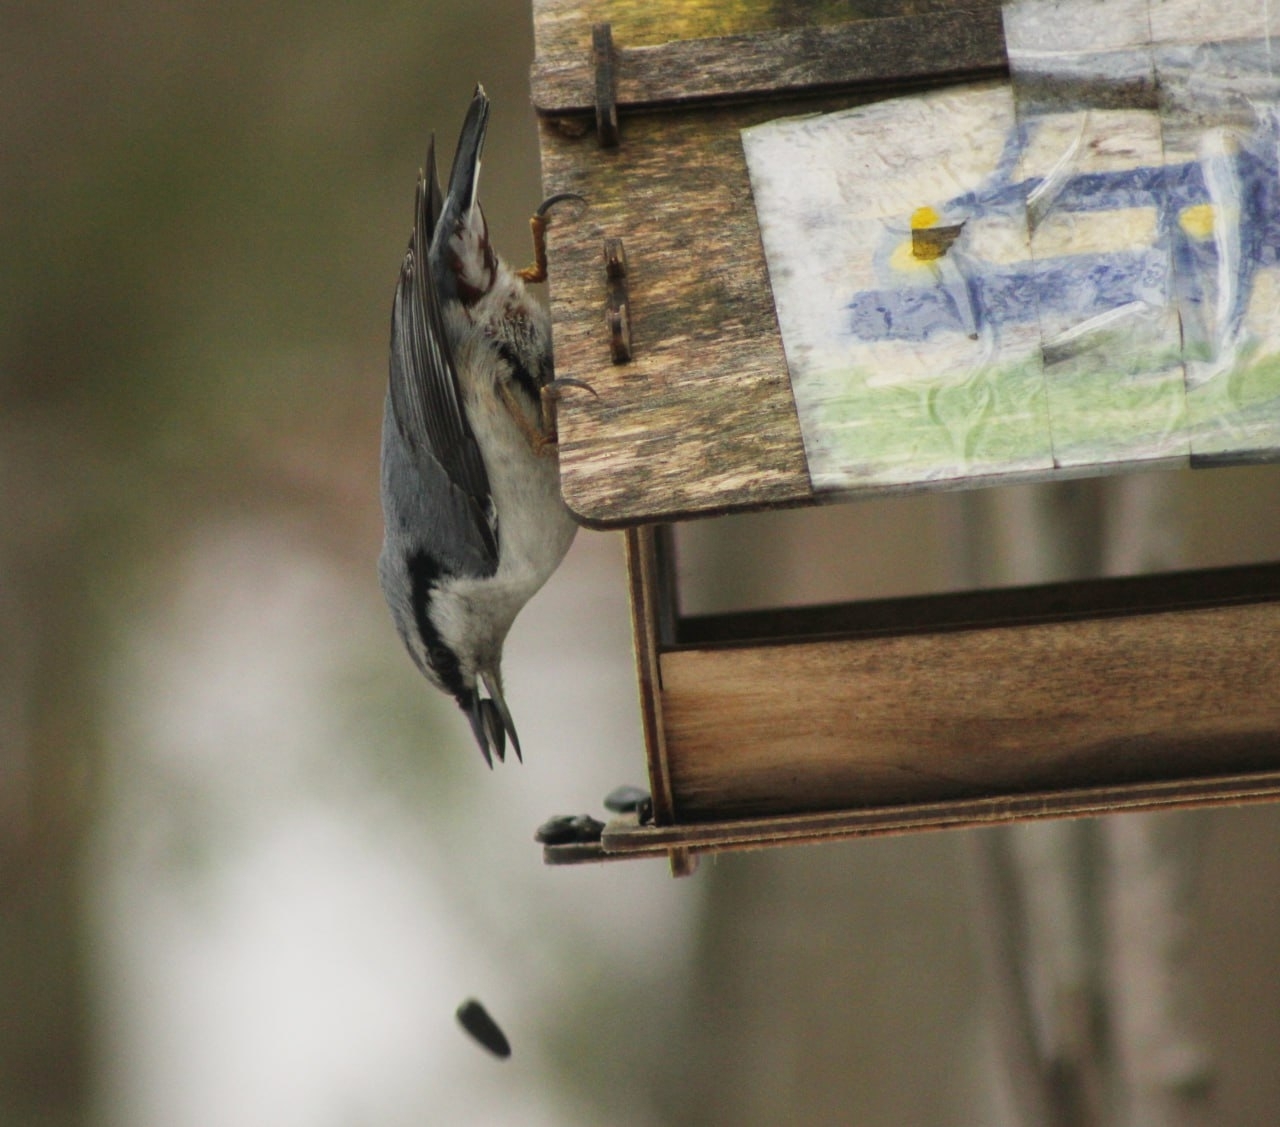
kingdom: Animalia
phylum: Chordata
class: Aves
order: Passeriformes
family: Sittidae
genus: Sitta
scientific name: Sitta europaea
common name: Eurasian nuthatch
